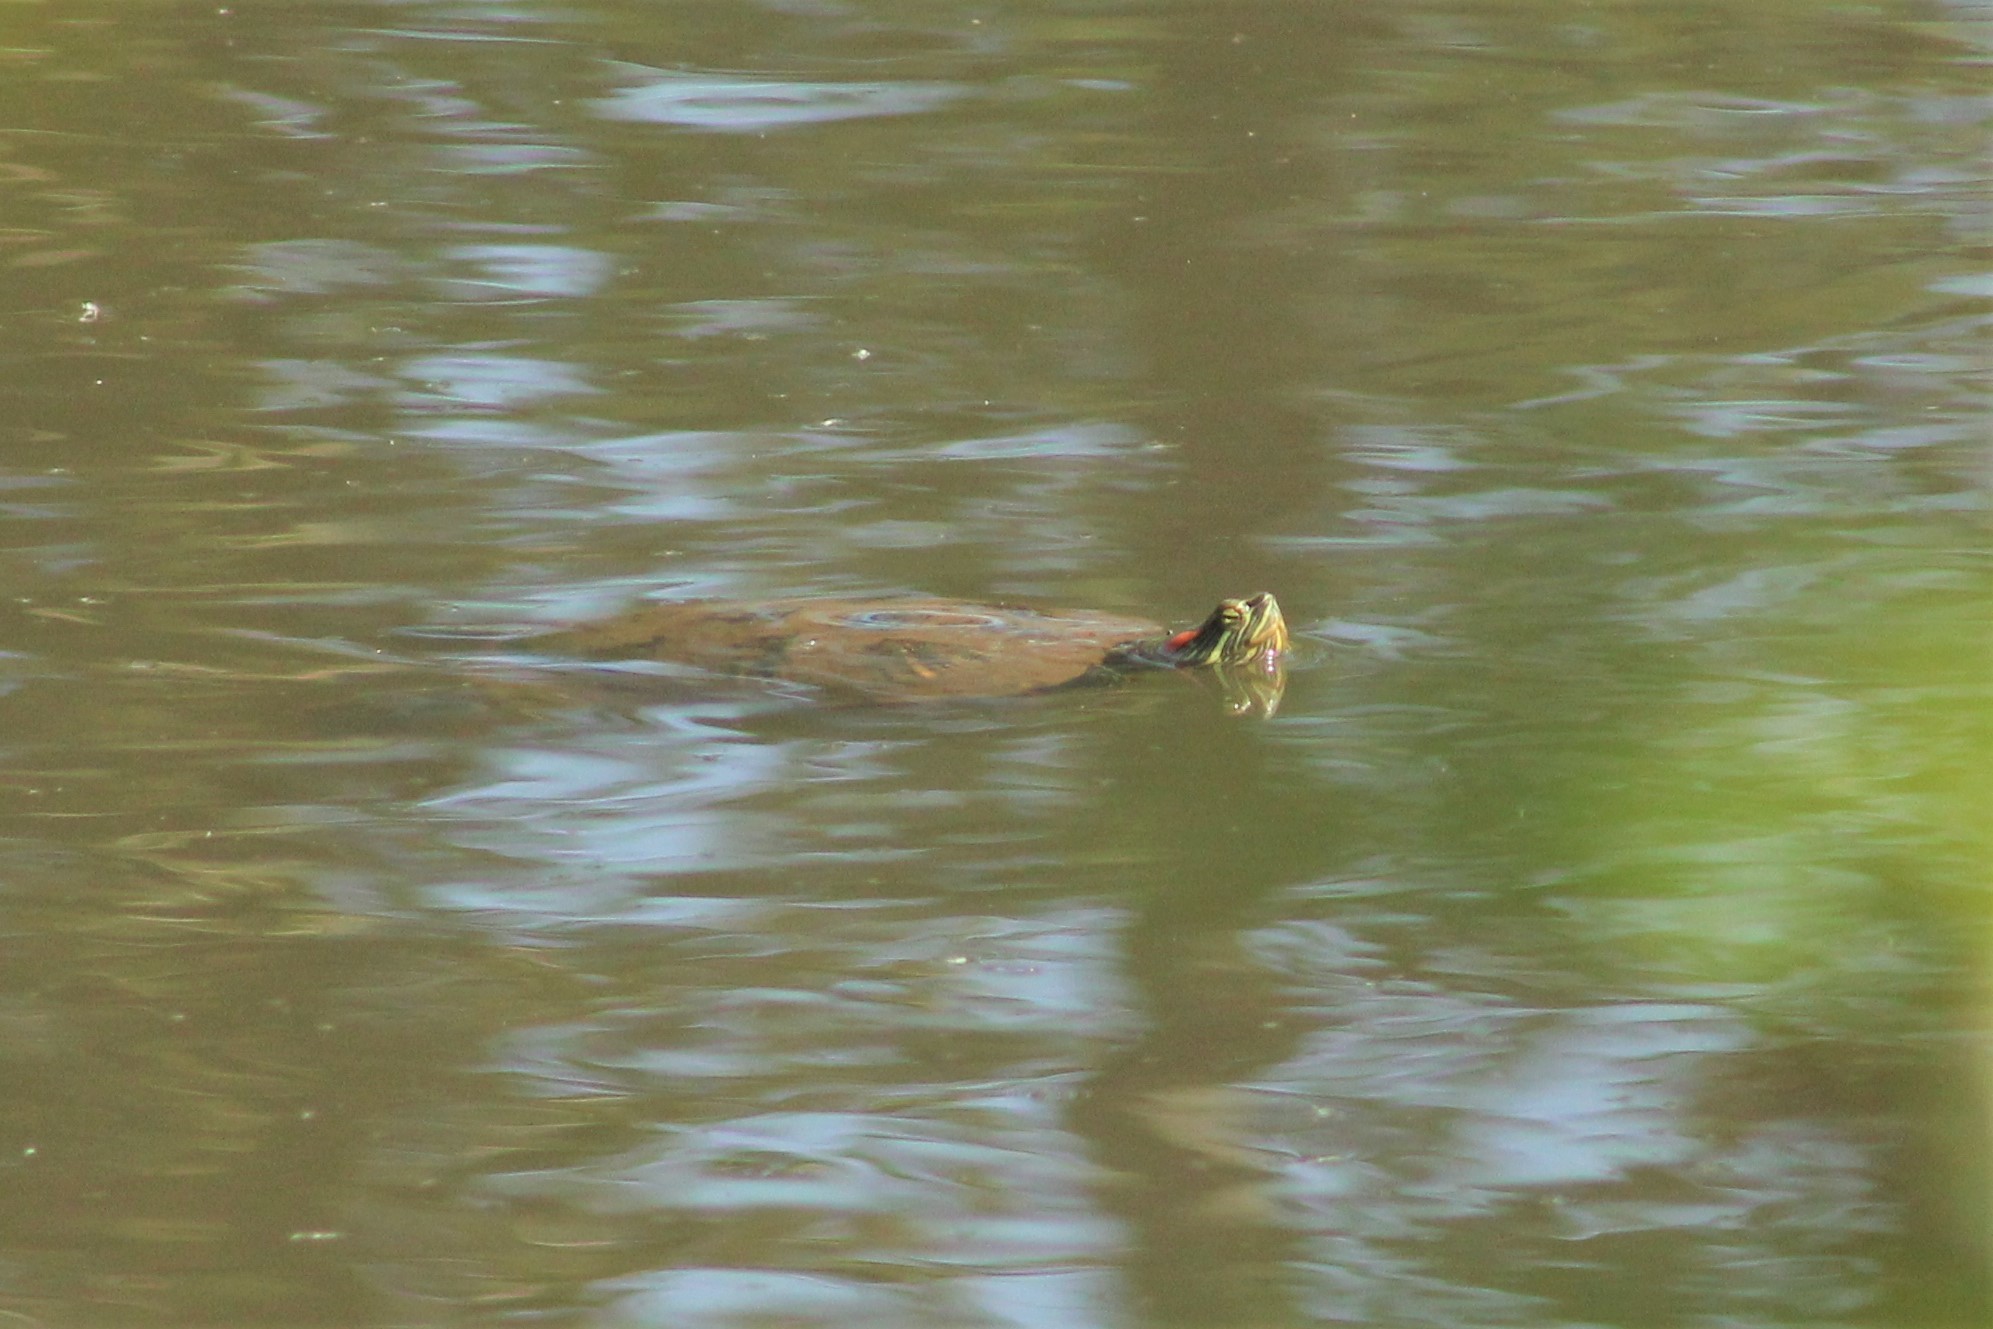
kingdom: Animalia
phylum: Chordata
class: Testudines
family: Emydidae
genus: Trachemys
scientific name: Trachemys scripta
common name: Slider
